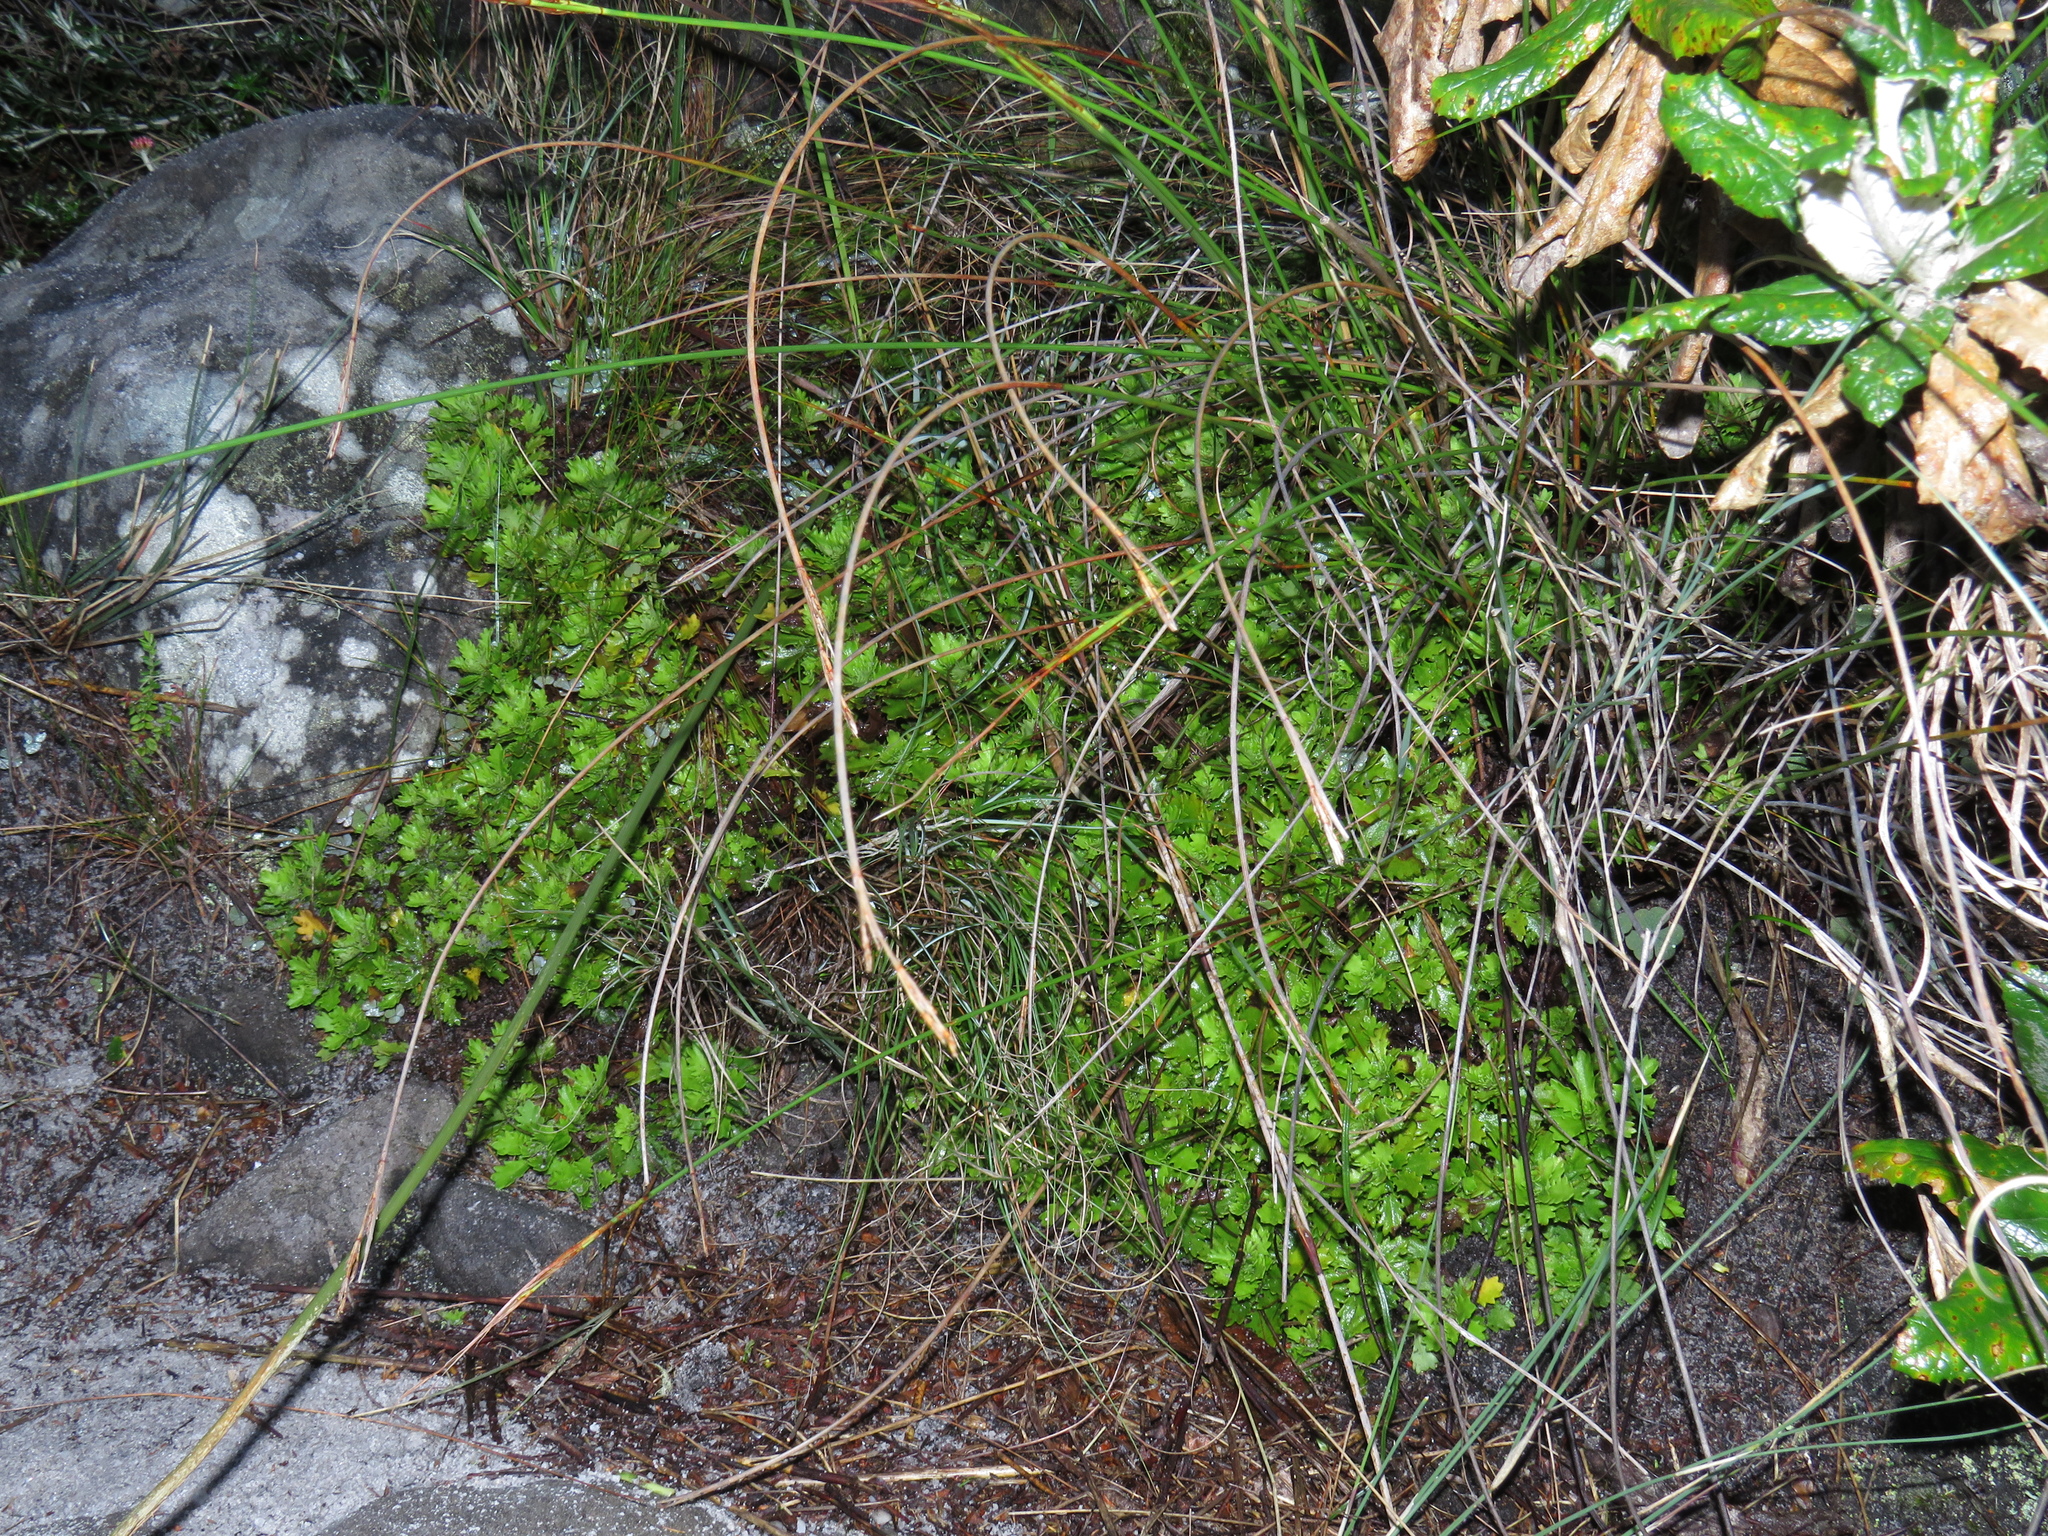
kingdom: Plantae
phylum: Tracheophyta
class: Magnoliopsida
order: Asterales
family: Asteraceae
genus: Osmitopsis
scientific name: Osmitopsis dentata
